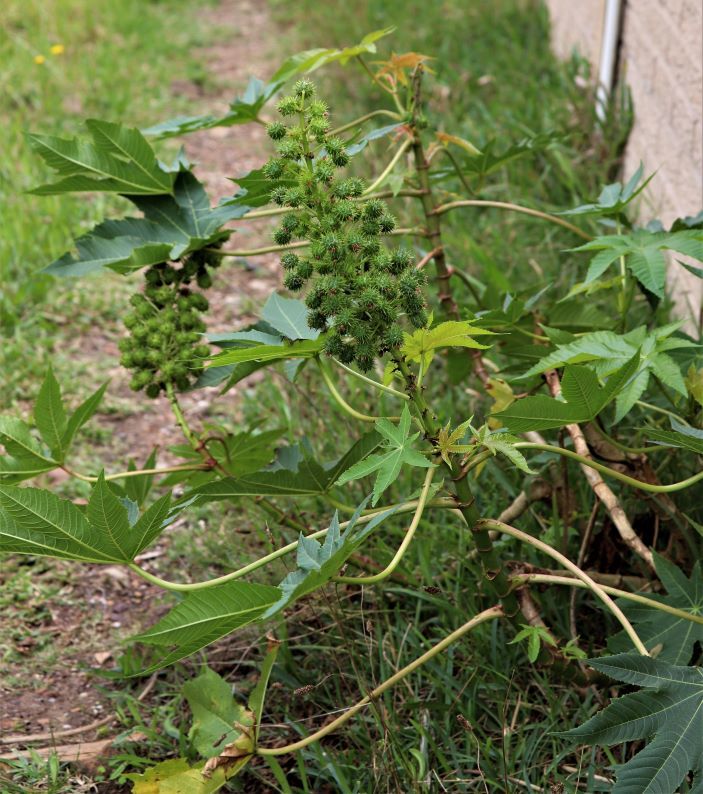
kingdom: Plantae
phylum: Tracheophyta
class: Magnoliopsida
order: Malpighiales
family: Euphorbiaceae
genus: Ricinus
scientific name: Ricinus communis
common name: Castor-oil-plant
